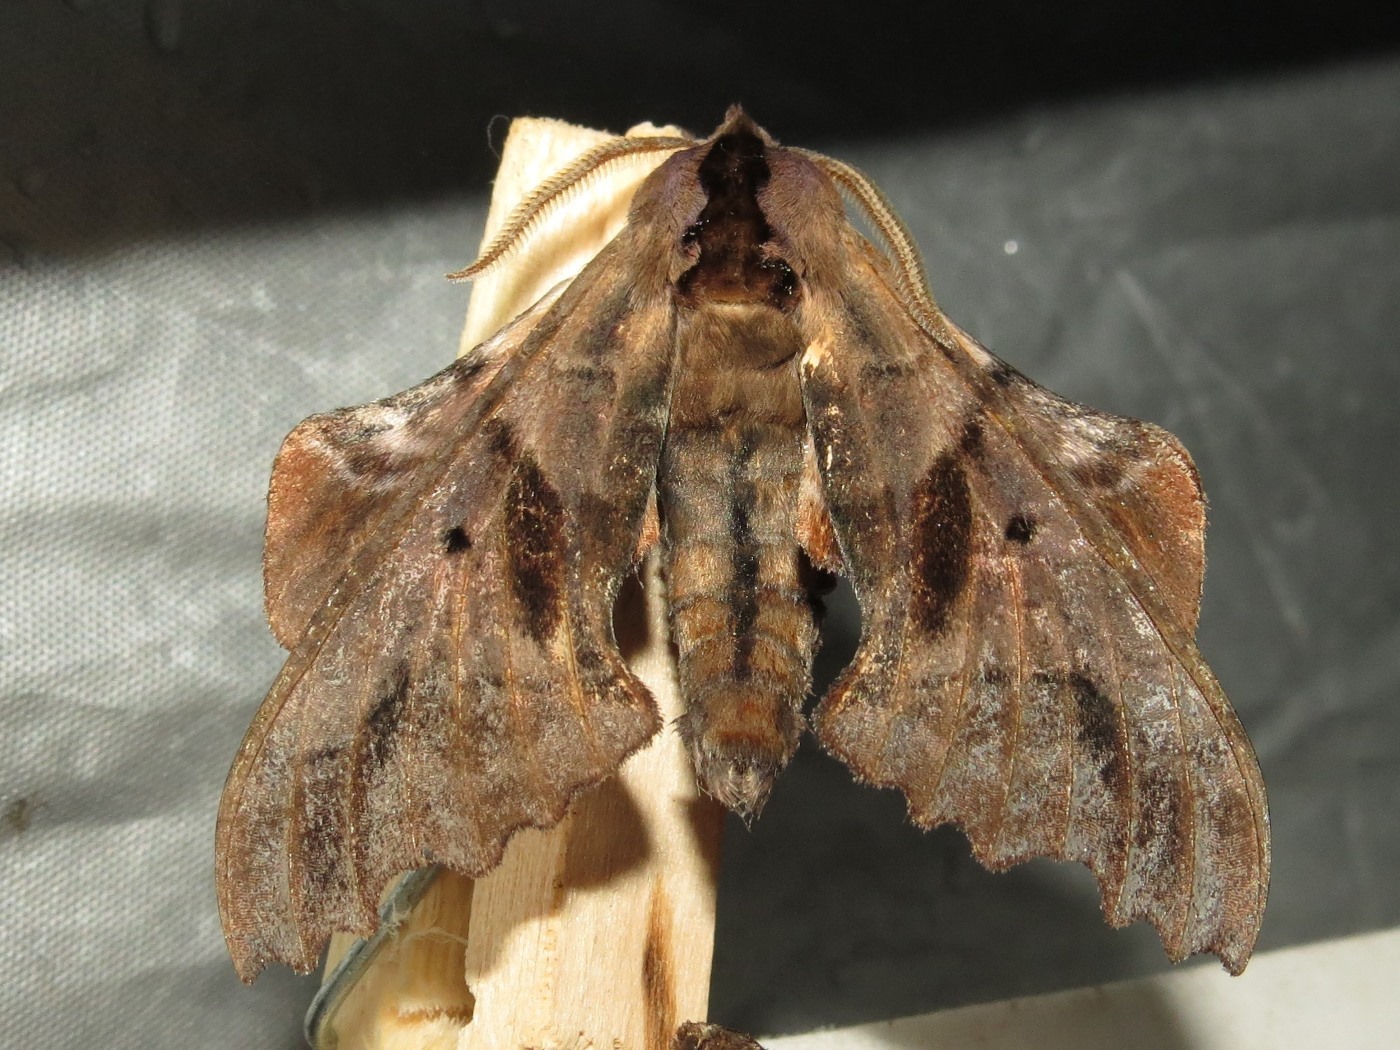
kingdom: Animalia
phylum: Arthropoda
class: Insecta
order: Lepidoptera
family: Sphingidae
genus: Paonias
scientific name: Paonias excaecata
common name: Blind-eyed sphinx
